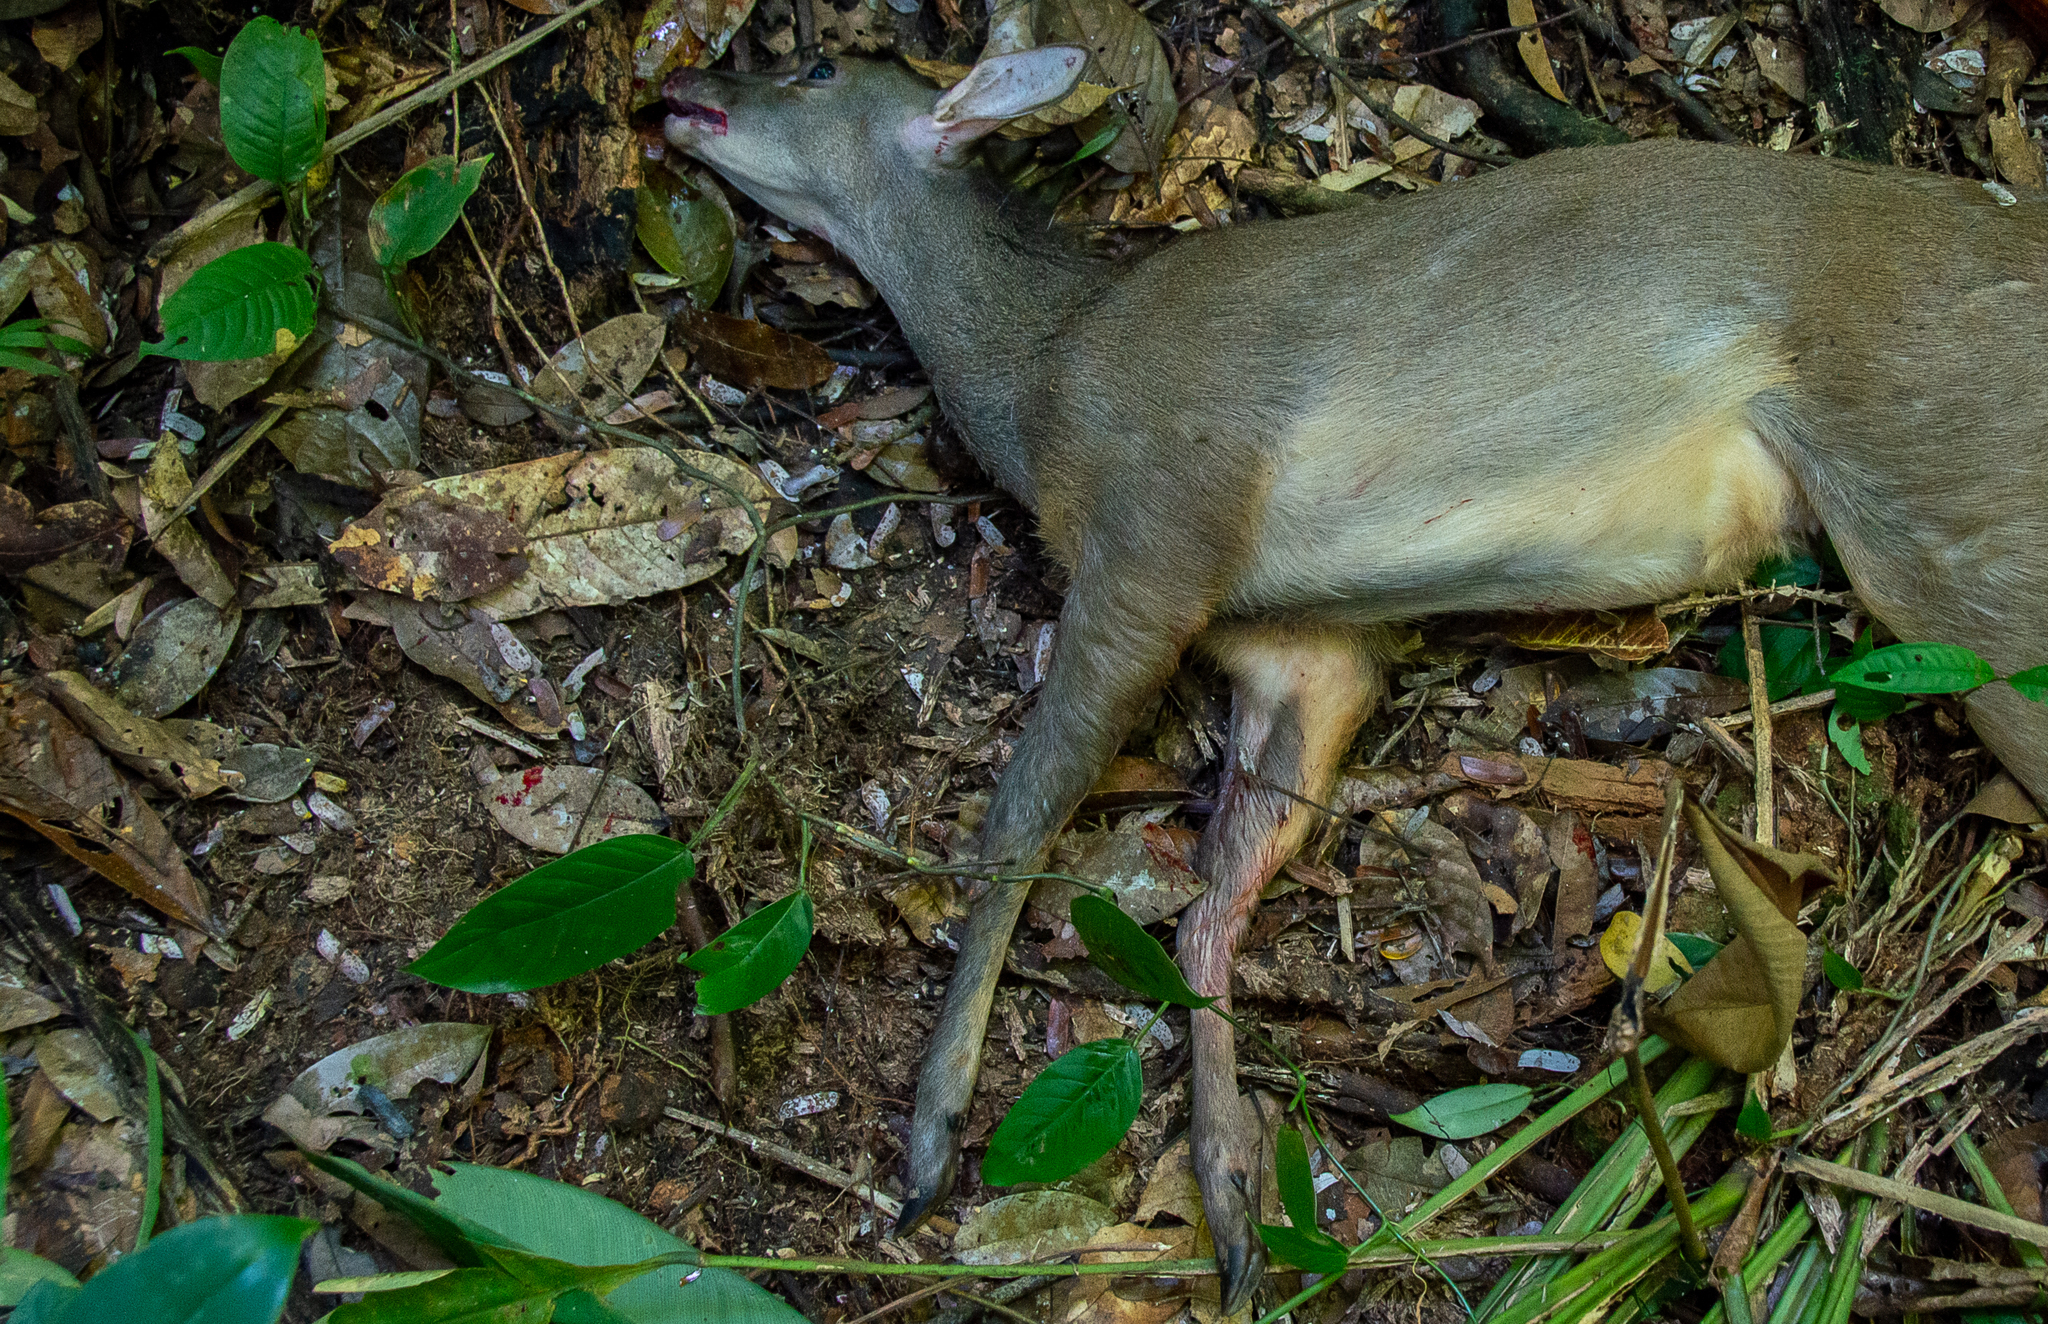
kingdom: Animalia
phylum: Chordata
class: Mammalia
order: Artiodactyla
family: Cervidae
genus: Mazama
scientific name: Mazama gouazoubira
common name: Gray brocket
